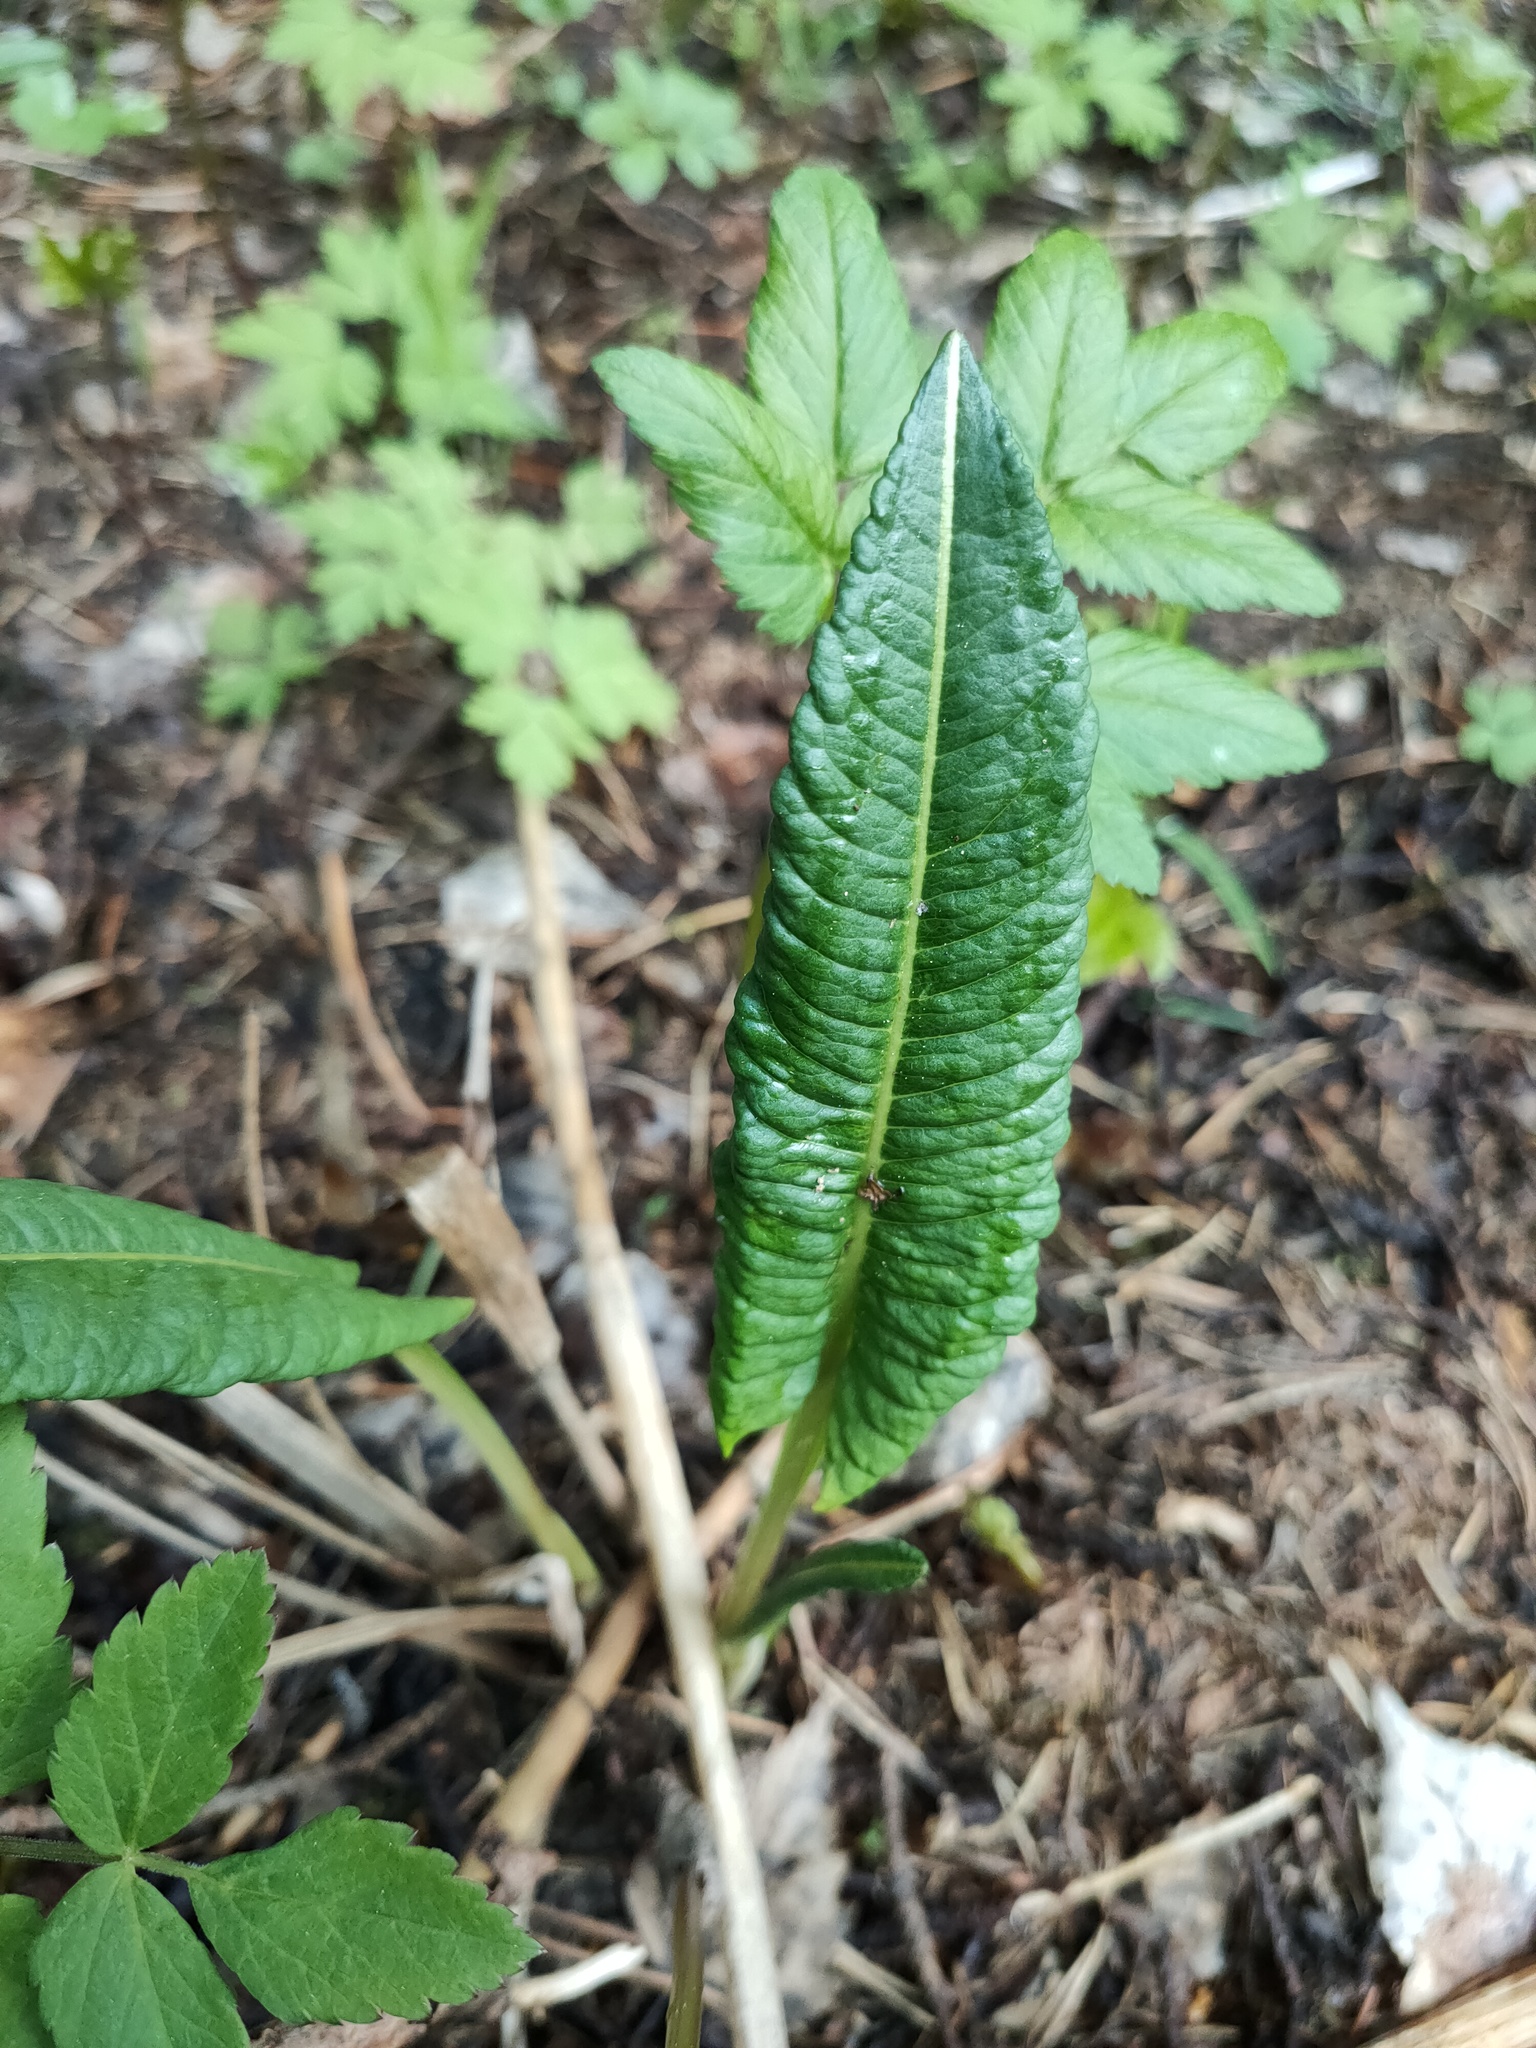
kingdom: Plantae
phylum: Tracheophyta
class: Magnoliopsida
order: Caryophyllales
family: Polygonaceae
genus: Bistorta
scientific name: Bistorta officinalis
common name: Common bistort
